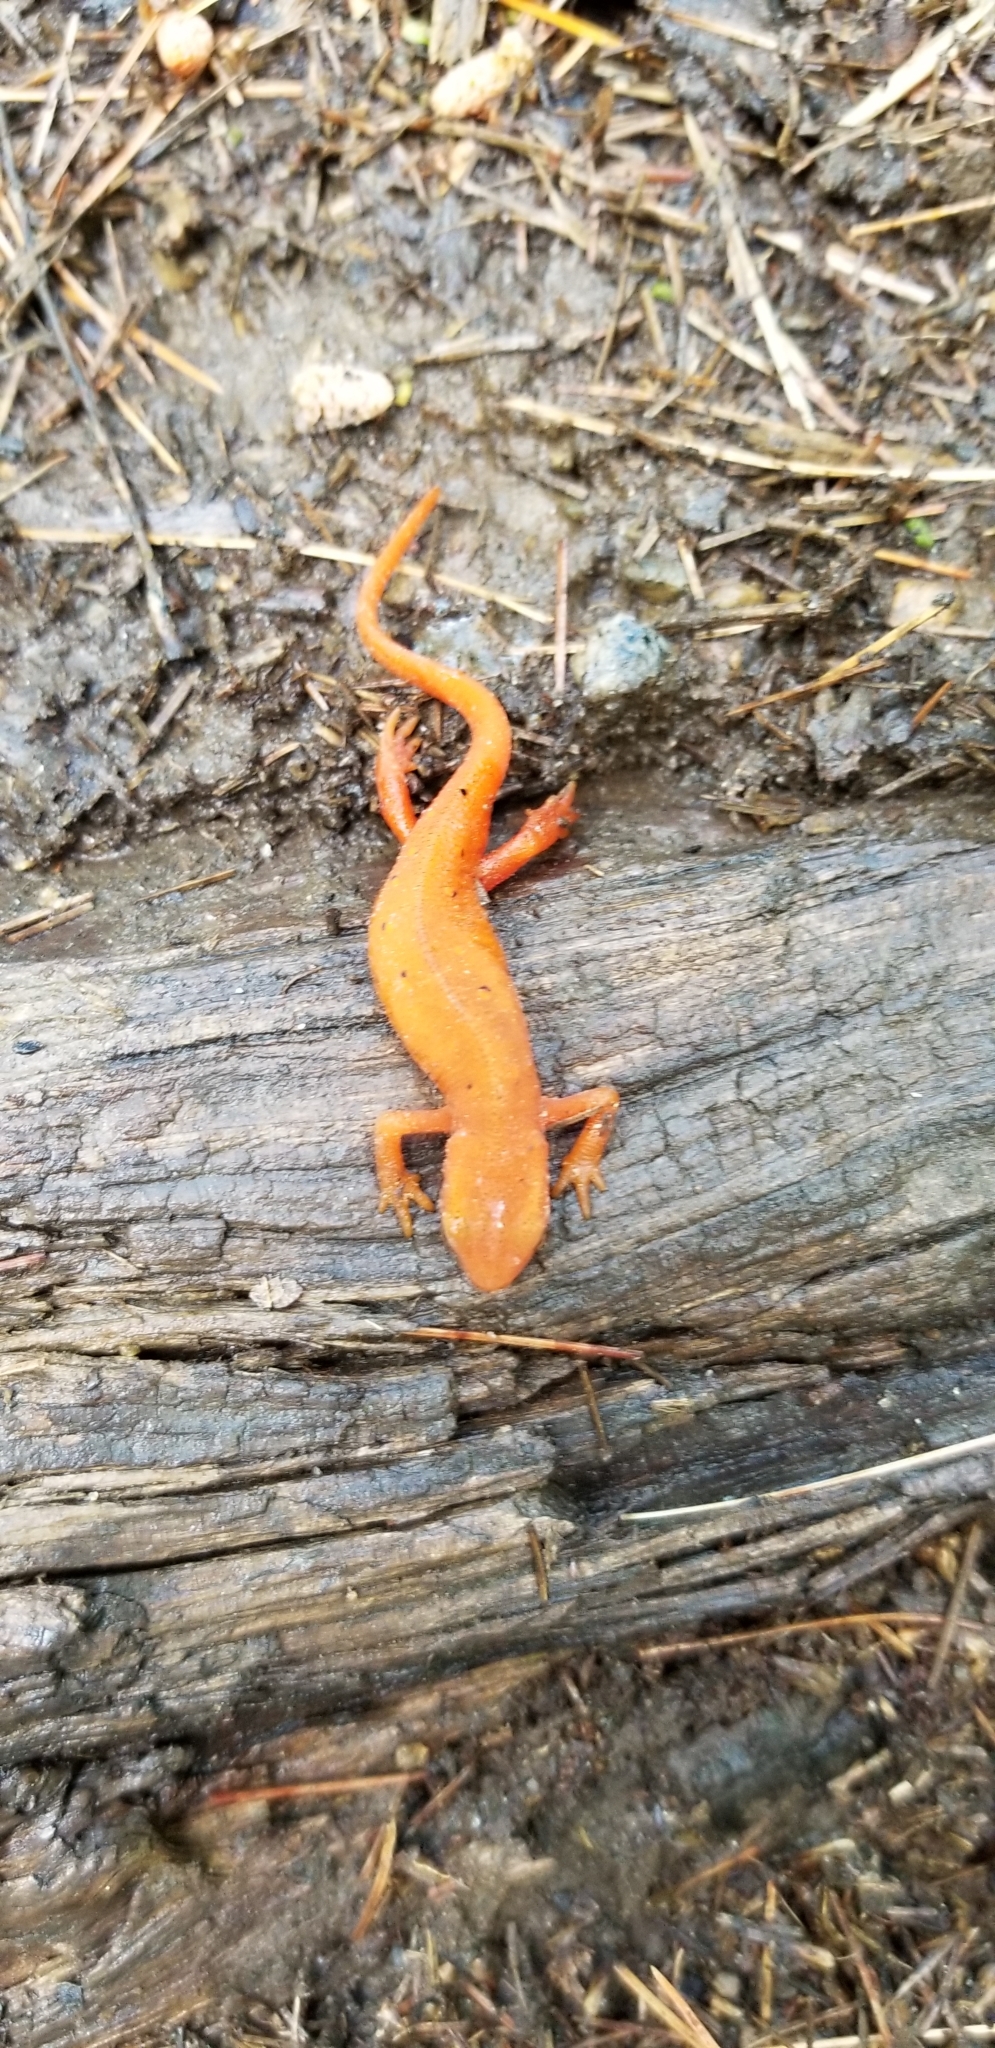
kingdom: Animalia
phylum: Chordata
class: Amphibia
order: Caudata
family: Salamandridae
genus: Notophthalmus
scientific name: Notophthalmus viridescens
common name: Eastern newt
